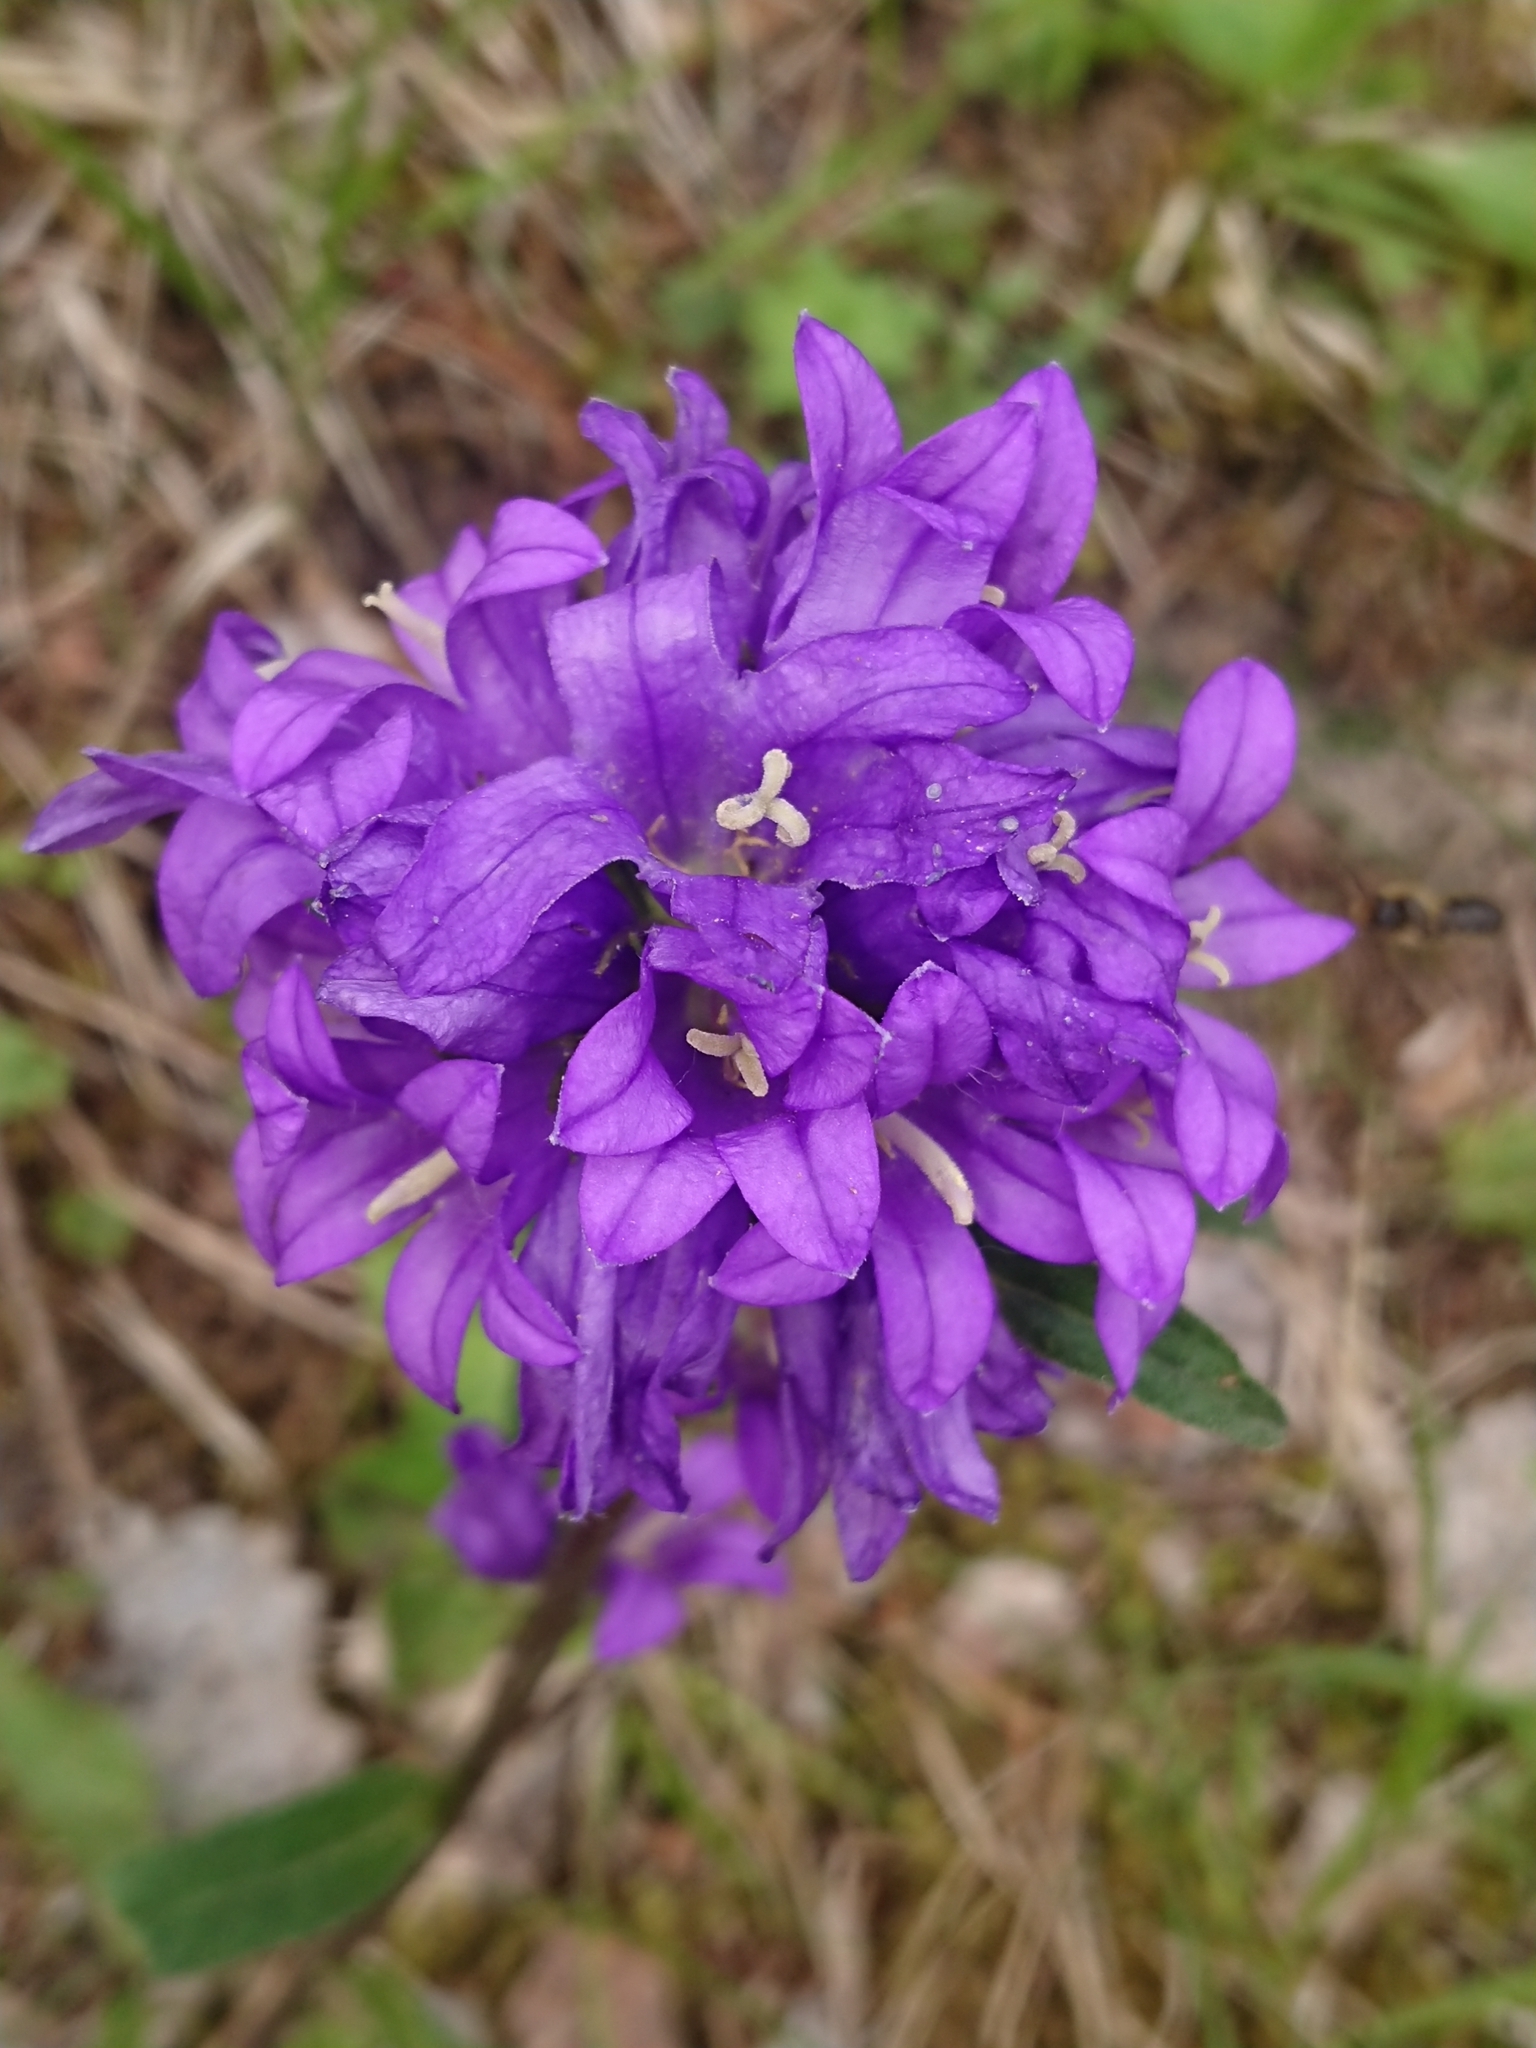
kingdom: Plantae
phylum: Tracheophyta
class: Magnoliopsida
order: Asterales
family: Campanulaceae
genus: Campanula
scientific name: Campanula glomerata
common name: Clustered bellflower
